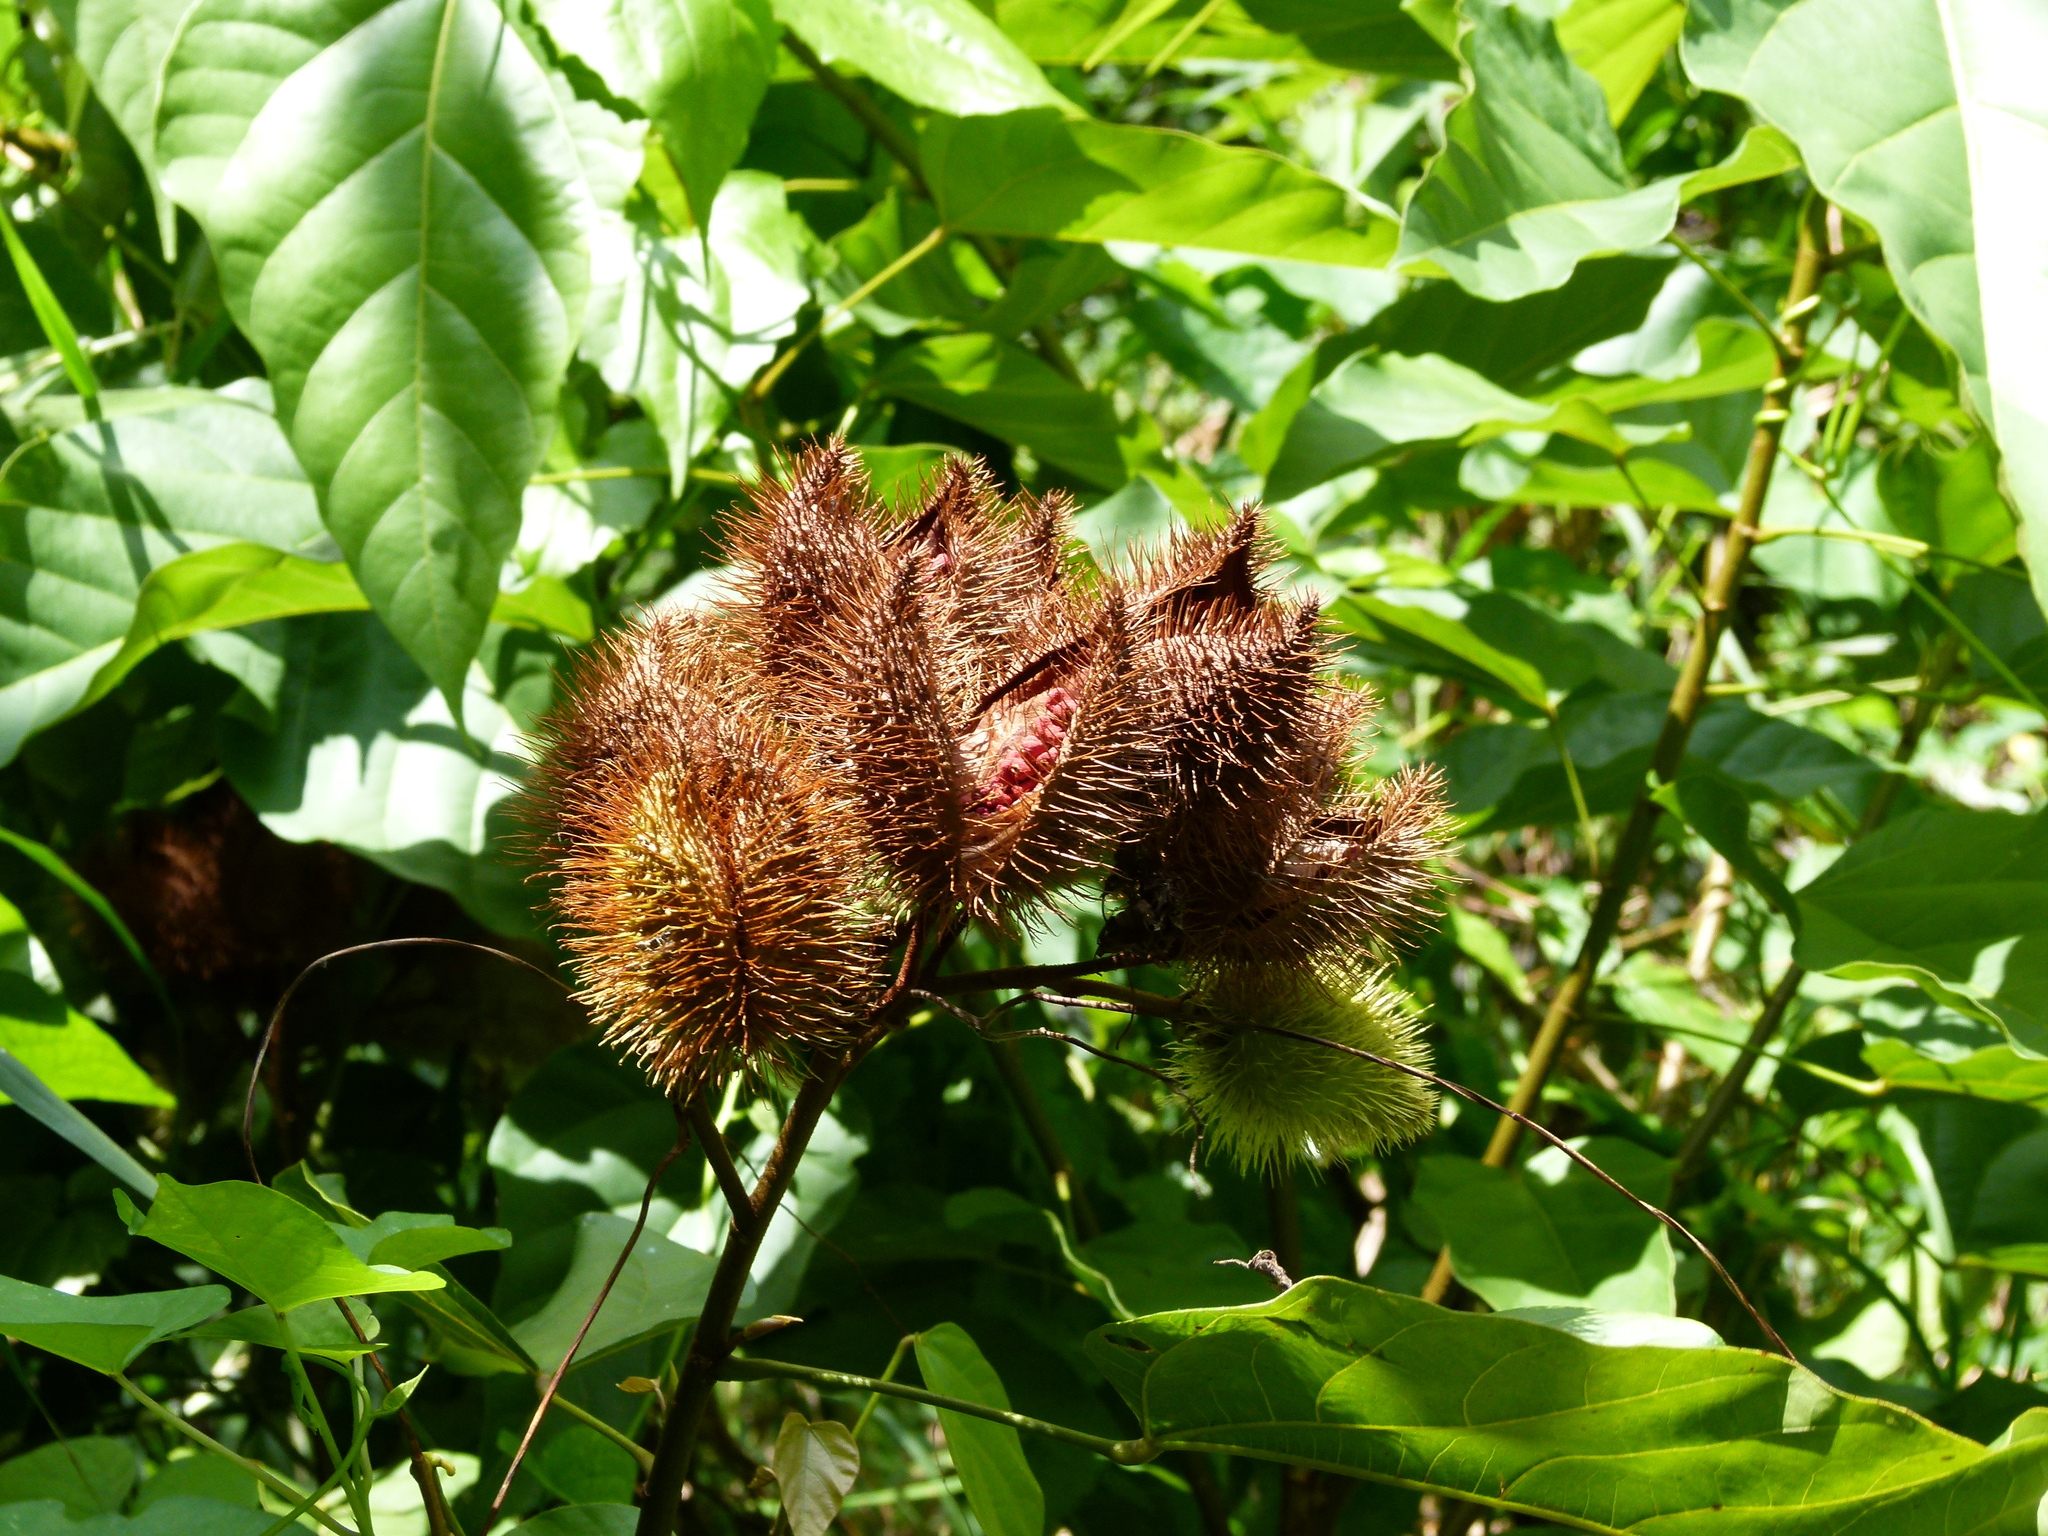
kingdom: Plantae
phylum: Tracheophyta
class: Magnoliopsida
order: Malvales
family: Bixaceae
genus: Bixa
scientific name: Bixa orellana
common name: Lipsticktree
